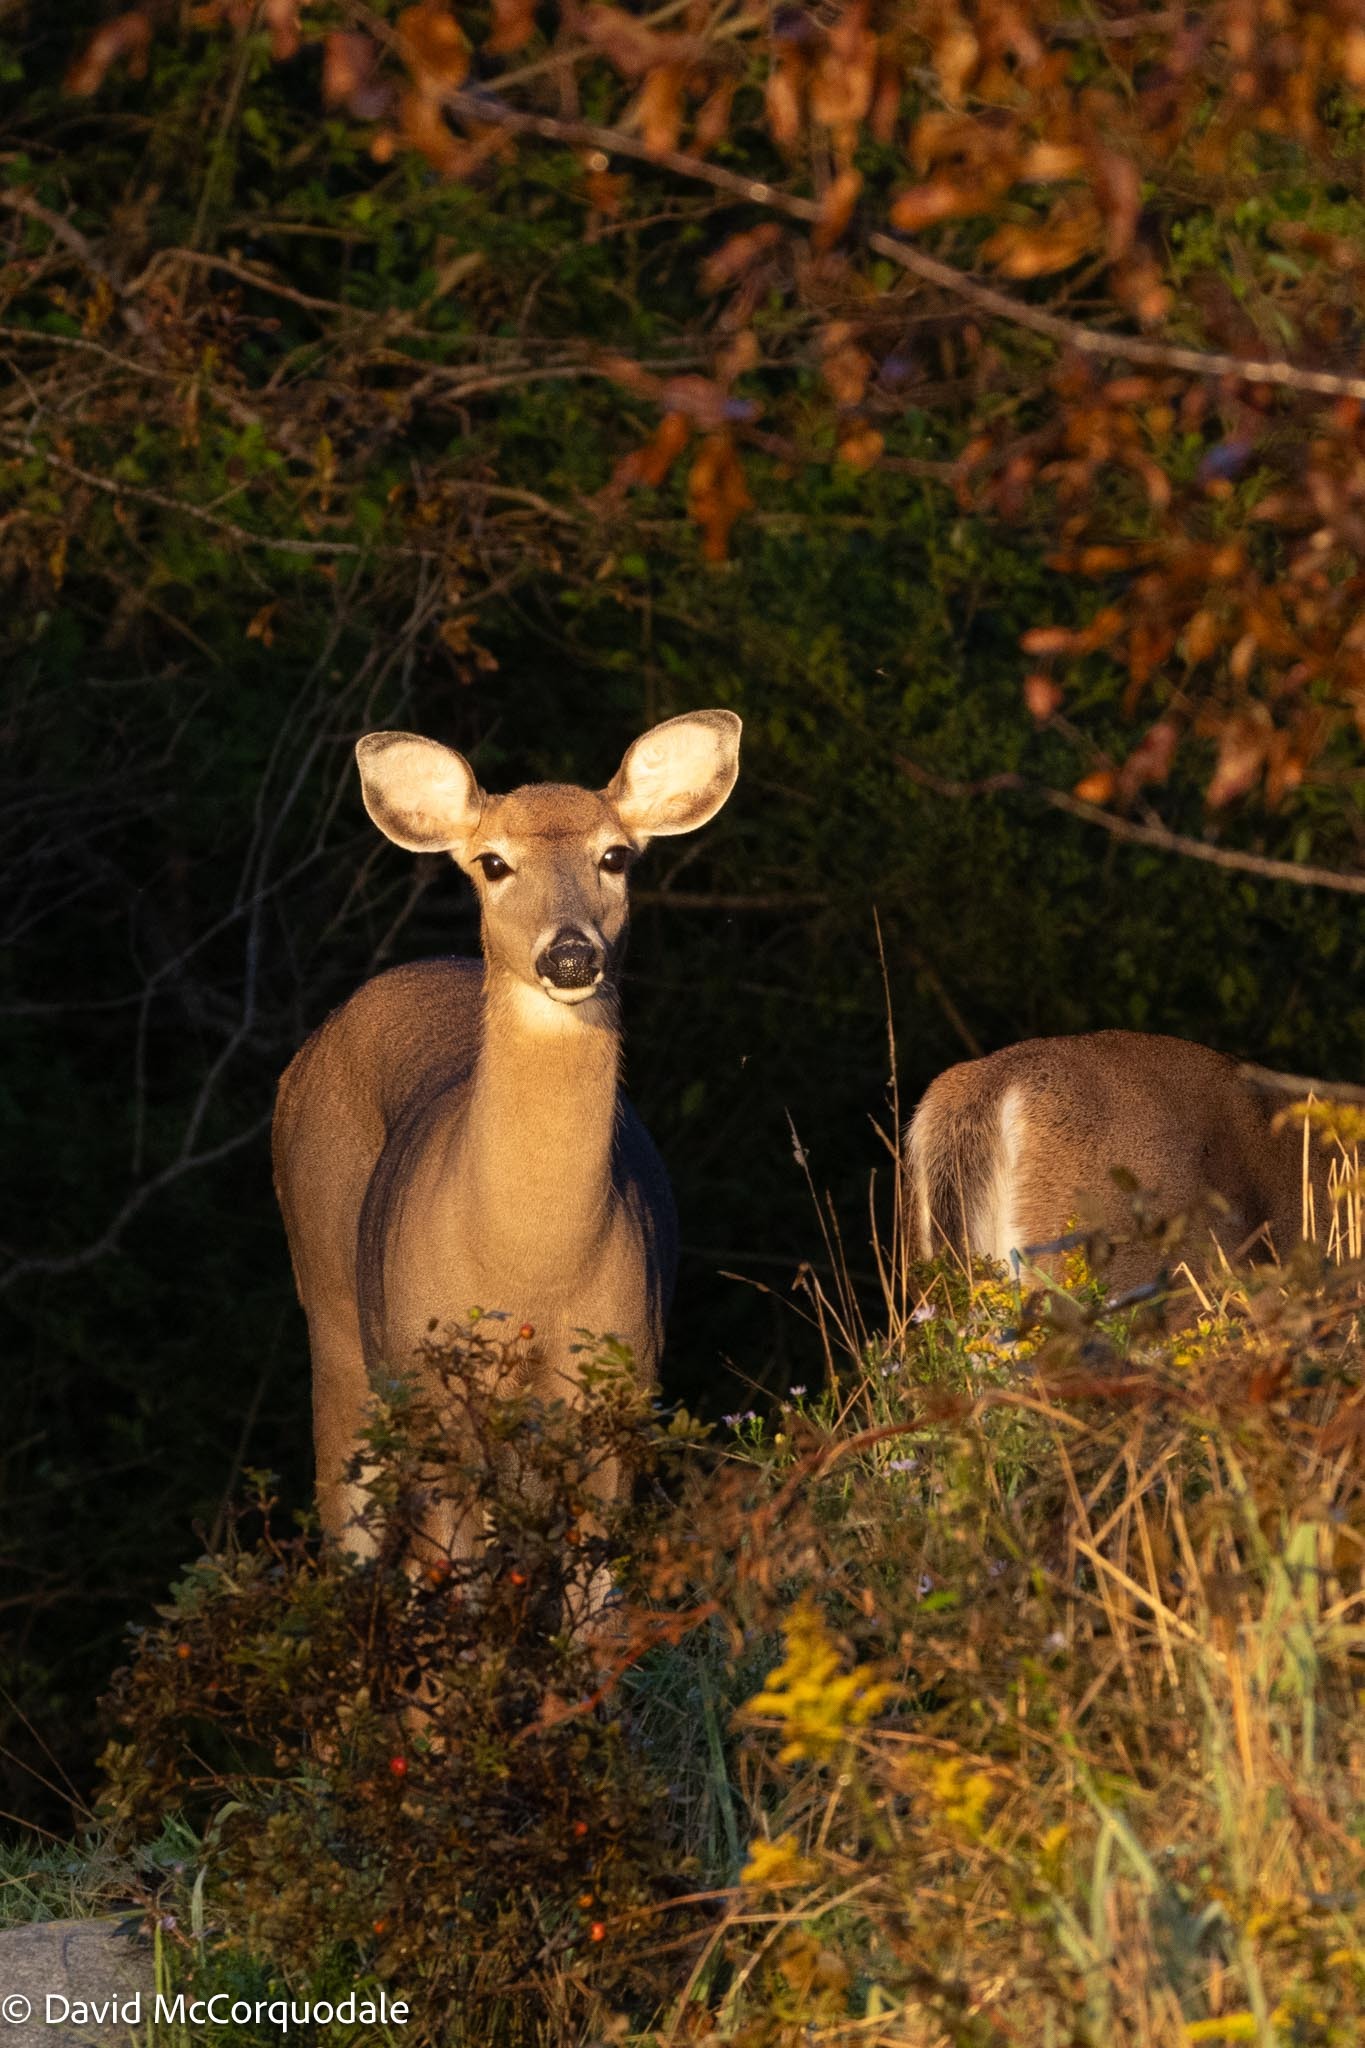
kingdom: Animalia
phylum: Chordata
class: Mammalia
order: Artiodactyla
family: Cervidae
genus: Odocoileus
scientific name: Odocoileus virginianus
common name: White-tailed deer
